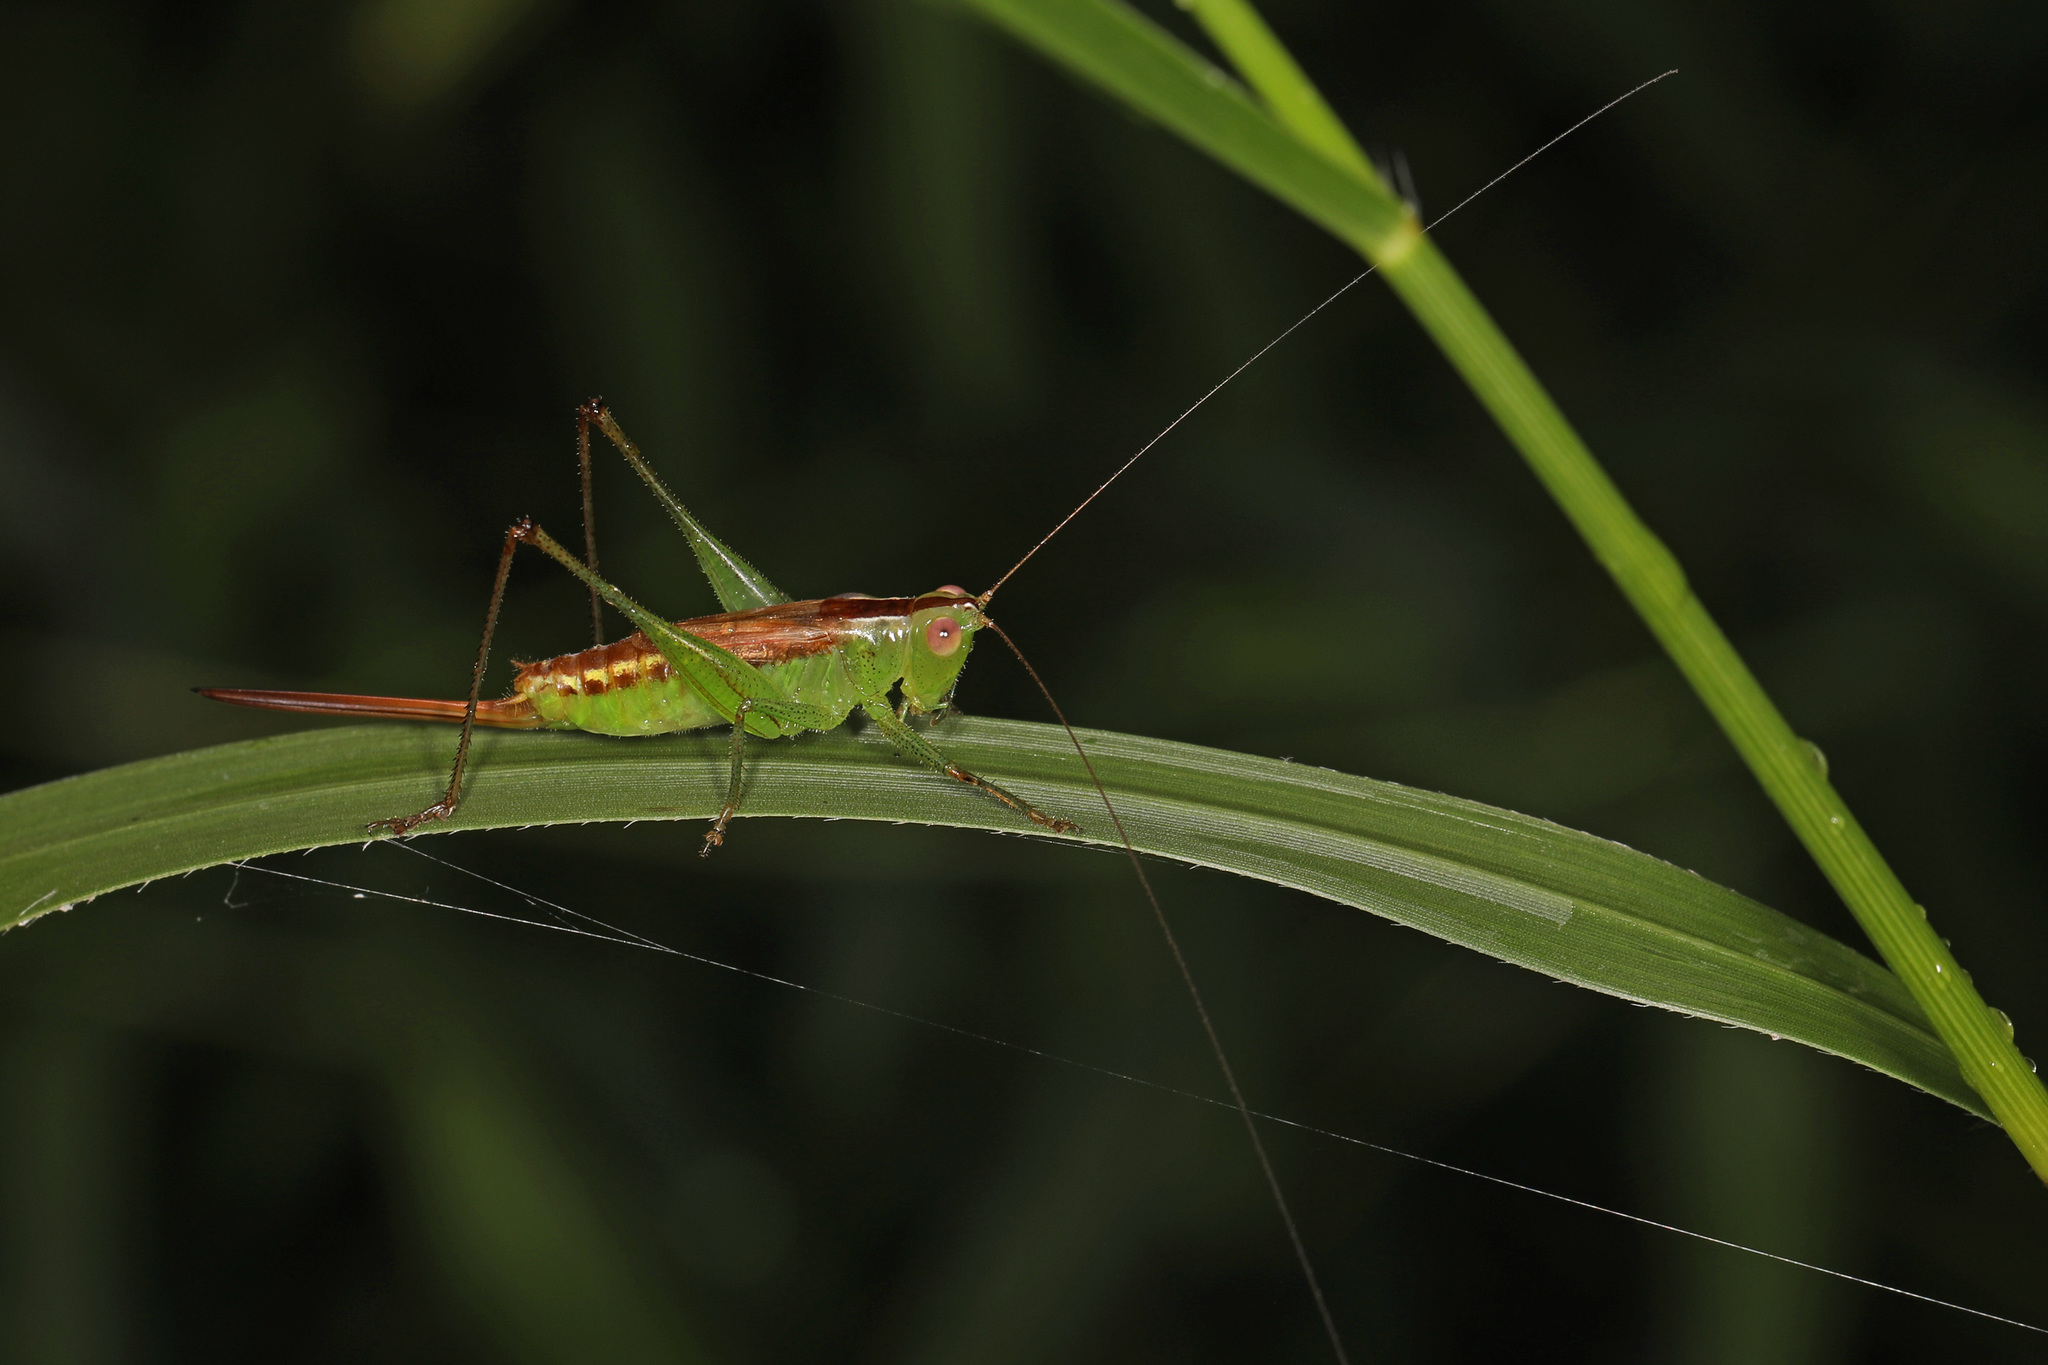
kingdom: Animalia
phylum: Arthropoda
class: Insecta
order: Orthoptera
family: Tettigoniidae
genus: Conocephalus
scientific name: Conocephalus brevipennis
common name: Short-winged meadow katydid
